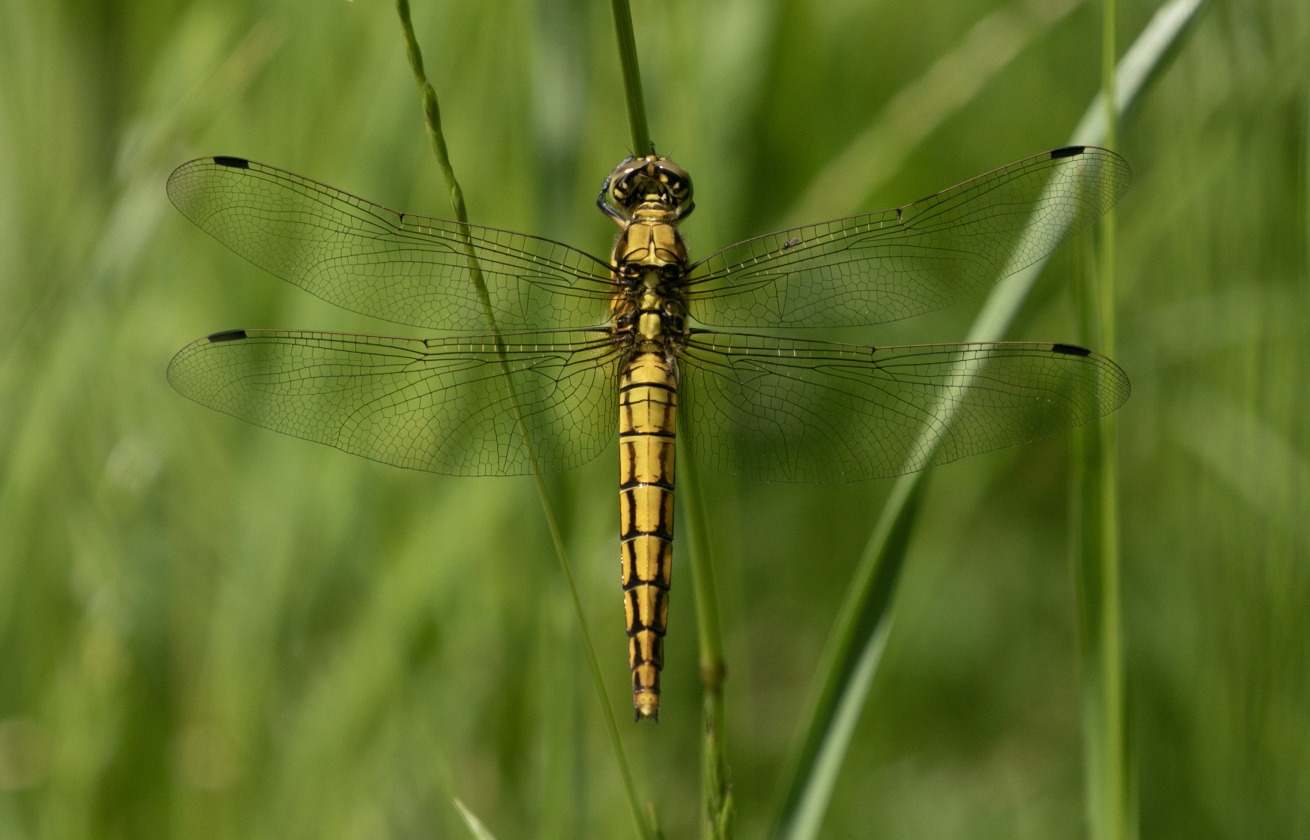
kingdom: Animalia
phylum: Arthropoda
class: Insecta
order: Odonata
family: Libellulidae
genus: Orthetrum
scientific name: Orthetrum cancellatum
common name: Black-tailed skimmer
